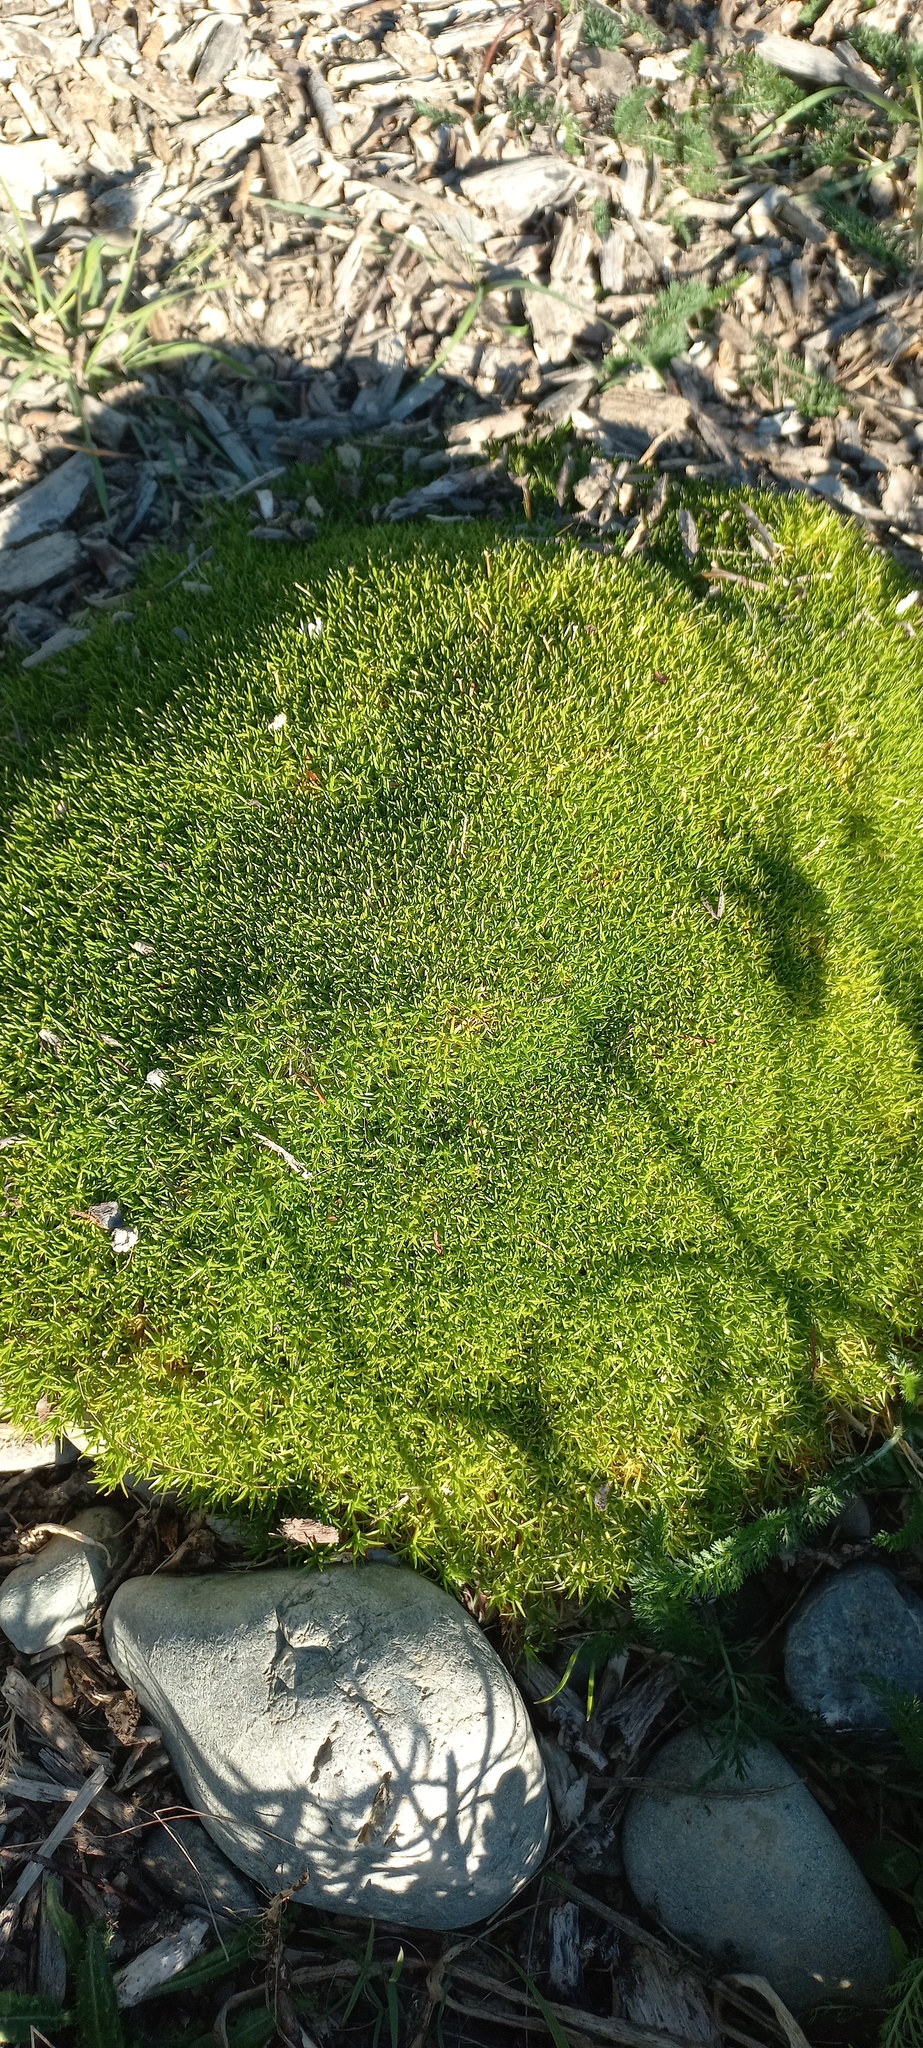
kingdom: Plantae
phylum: Tracheophyta
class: Magnoliopsida
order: Caryophyllales
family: Caryophyllaceae
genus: Scleranthus
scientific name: Scleranthus uniflorus
